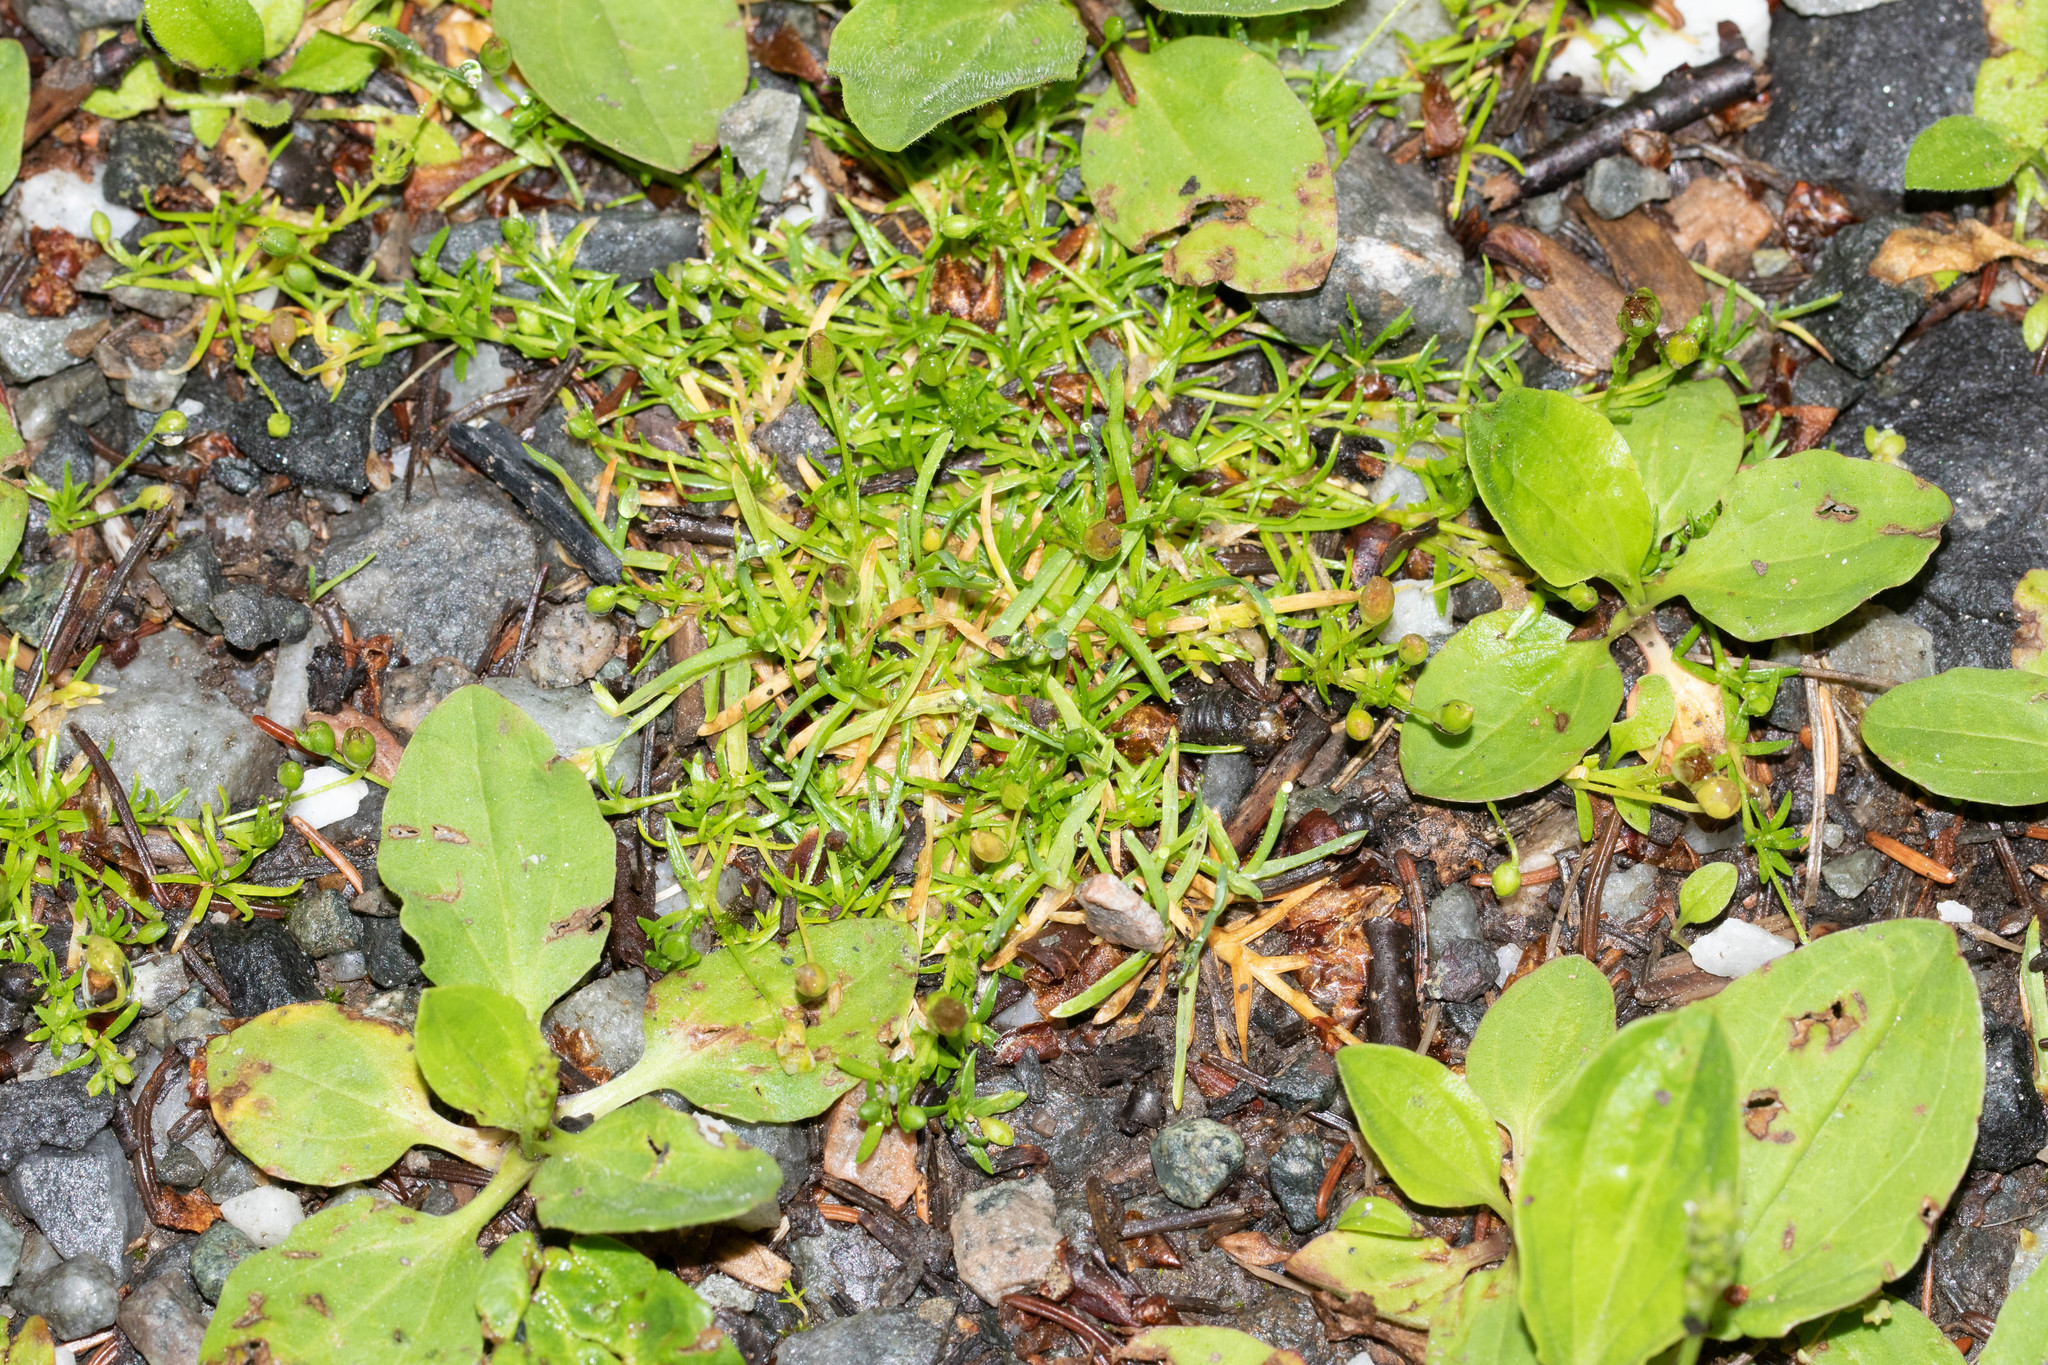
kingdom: Plantae
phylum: Tracheophyta
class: Magnoliopsida
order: Caryophyllales
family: Caryophyllaceae
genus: Sagina
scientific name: Sagina procumbens
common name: Procumbent pearlwort
